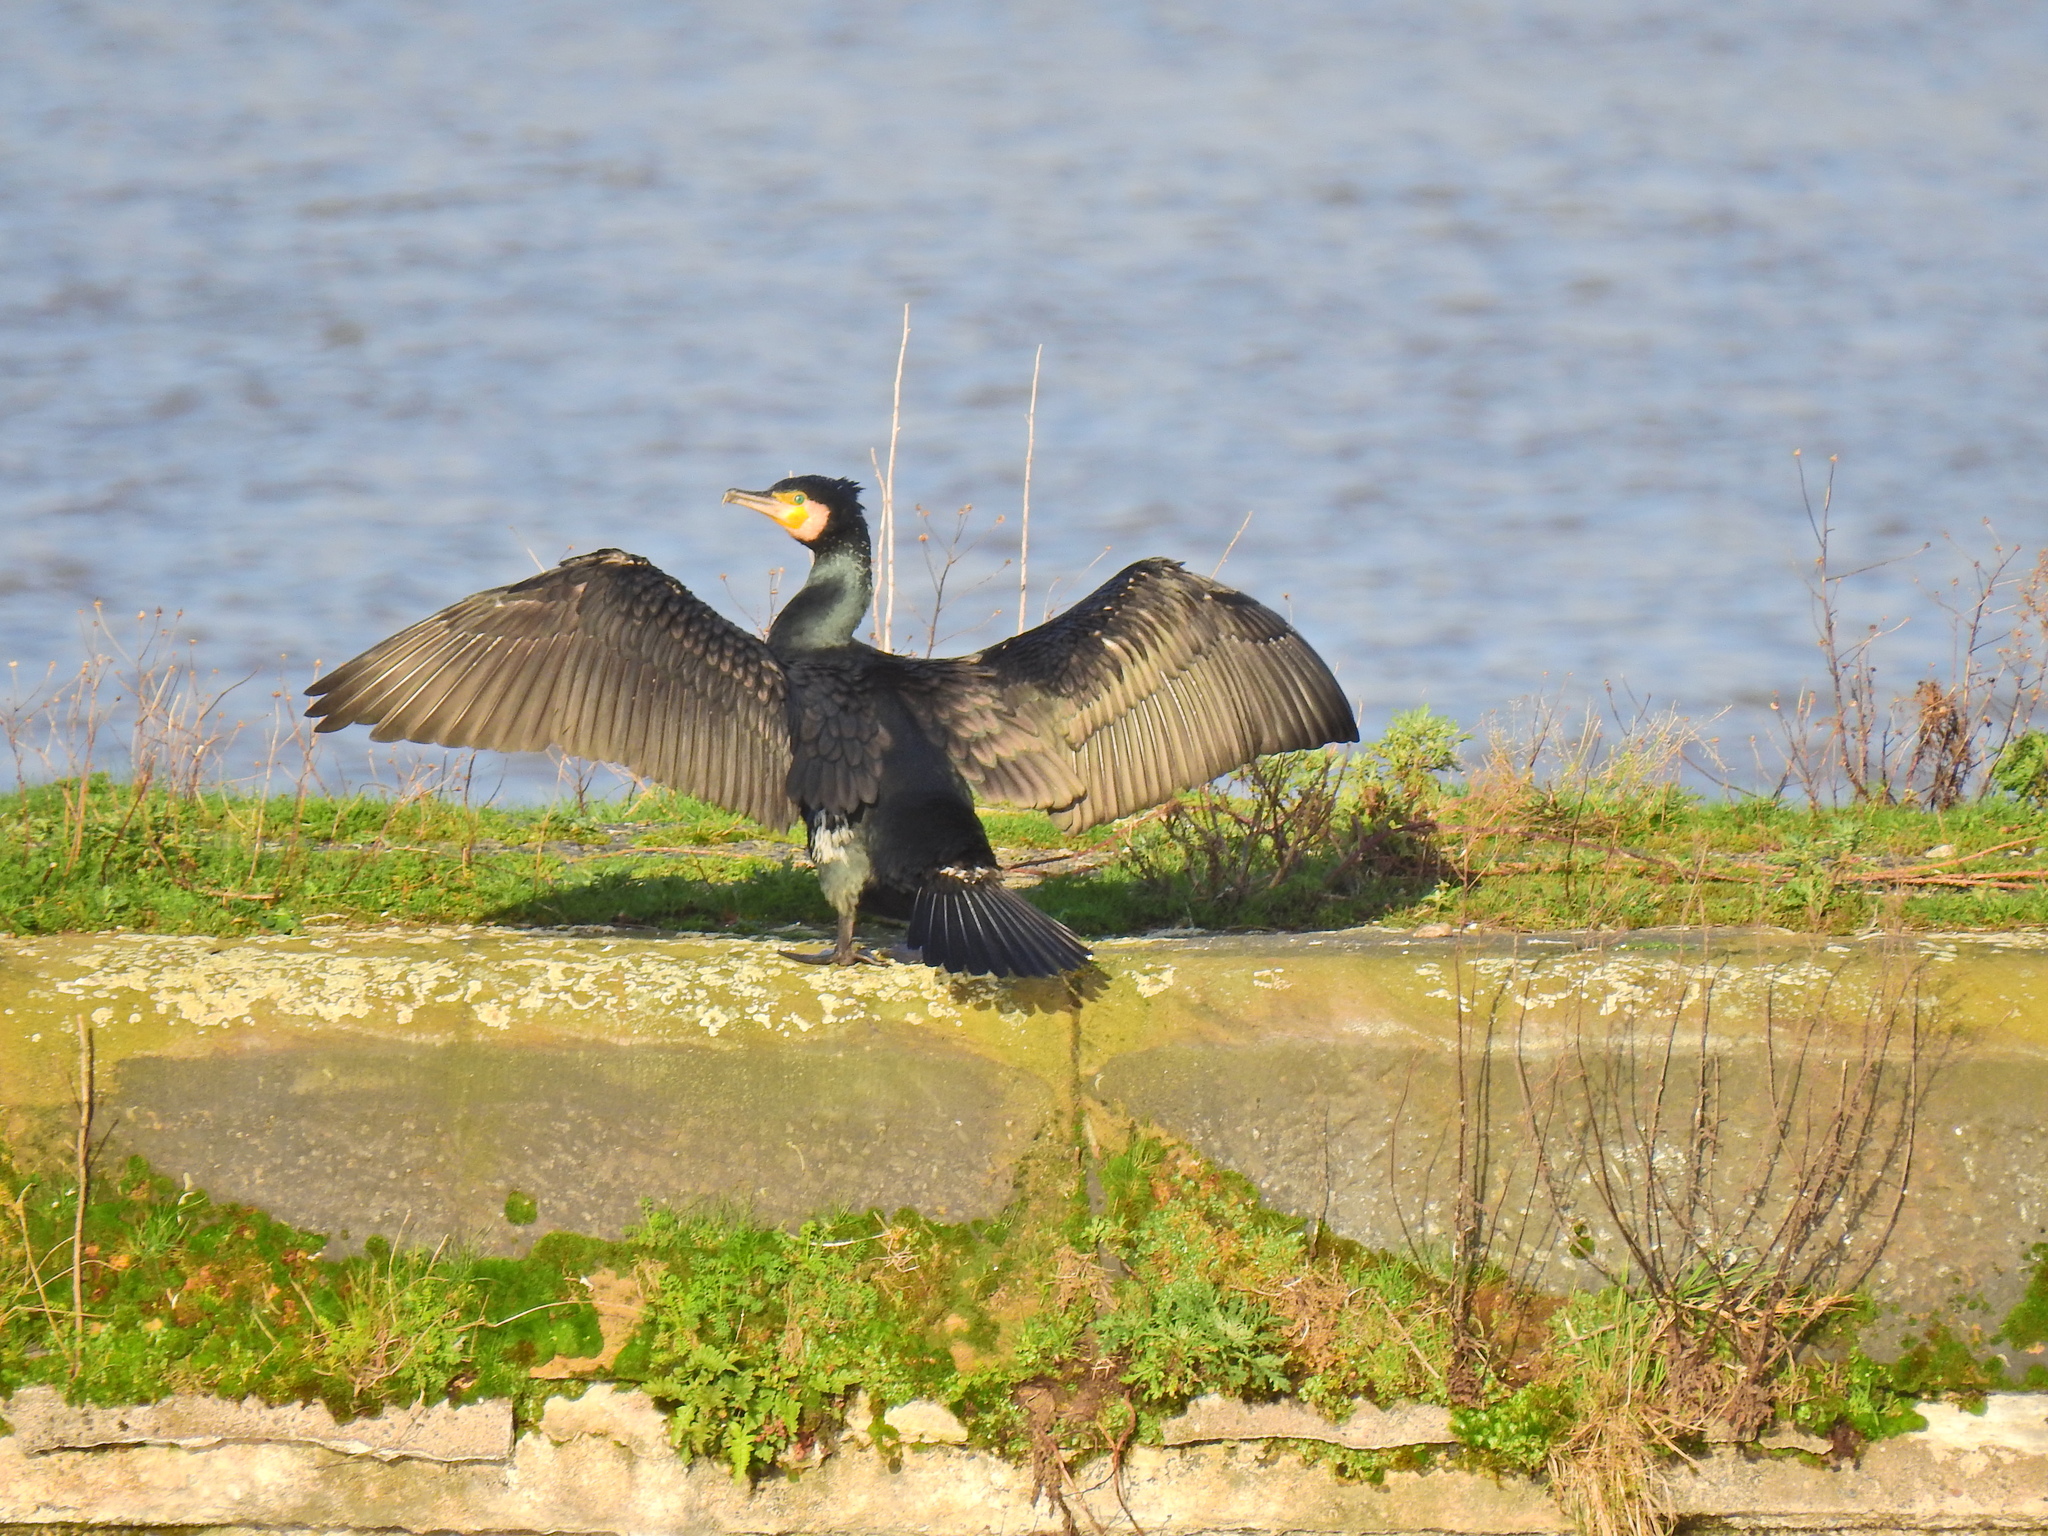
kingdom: Animalia
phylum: Chordata
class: Aves
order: Suliformes
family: Phalacrocoracidae
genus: Phalacrocorax
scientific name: Phalacrocorax carbo
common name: Great cormorant
